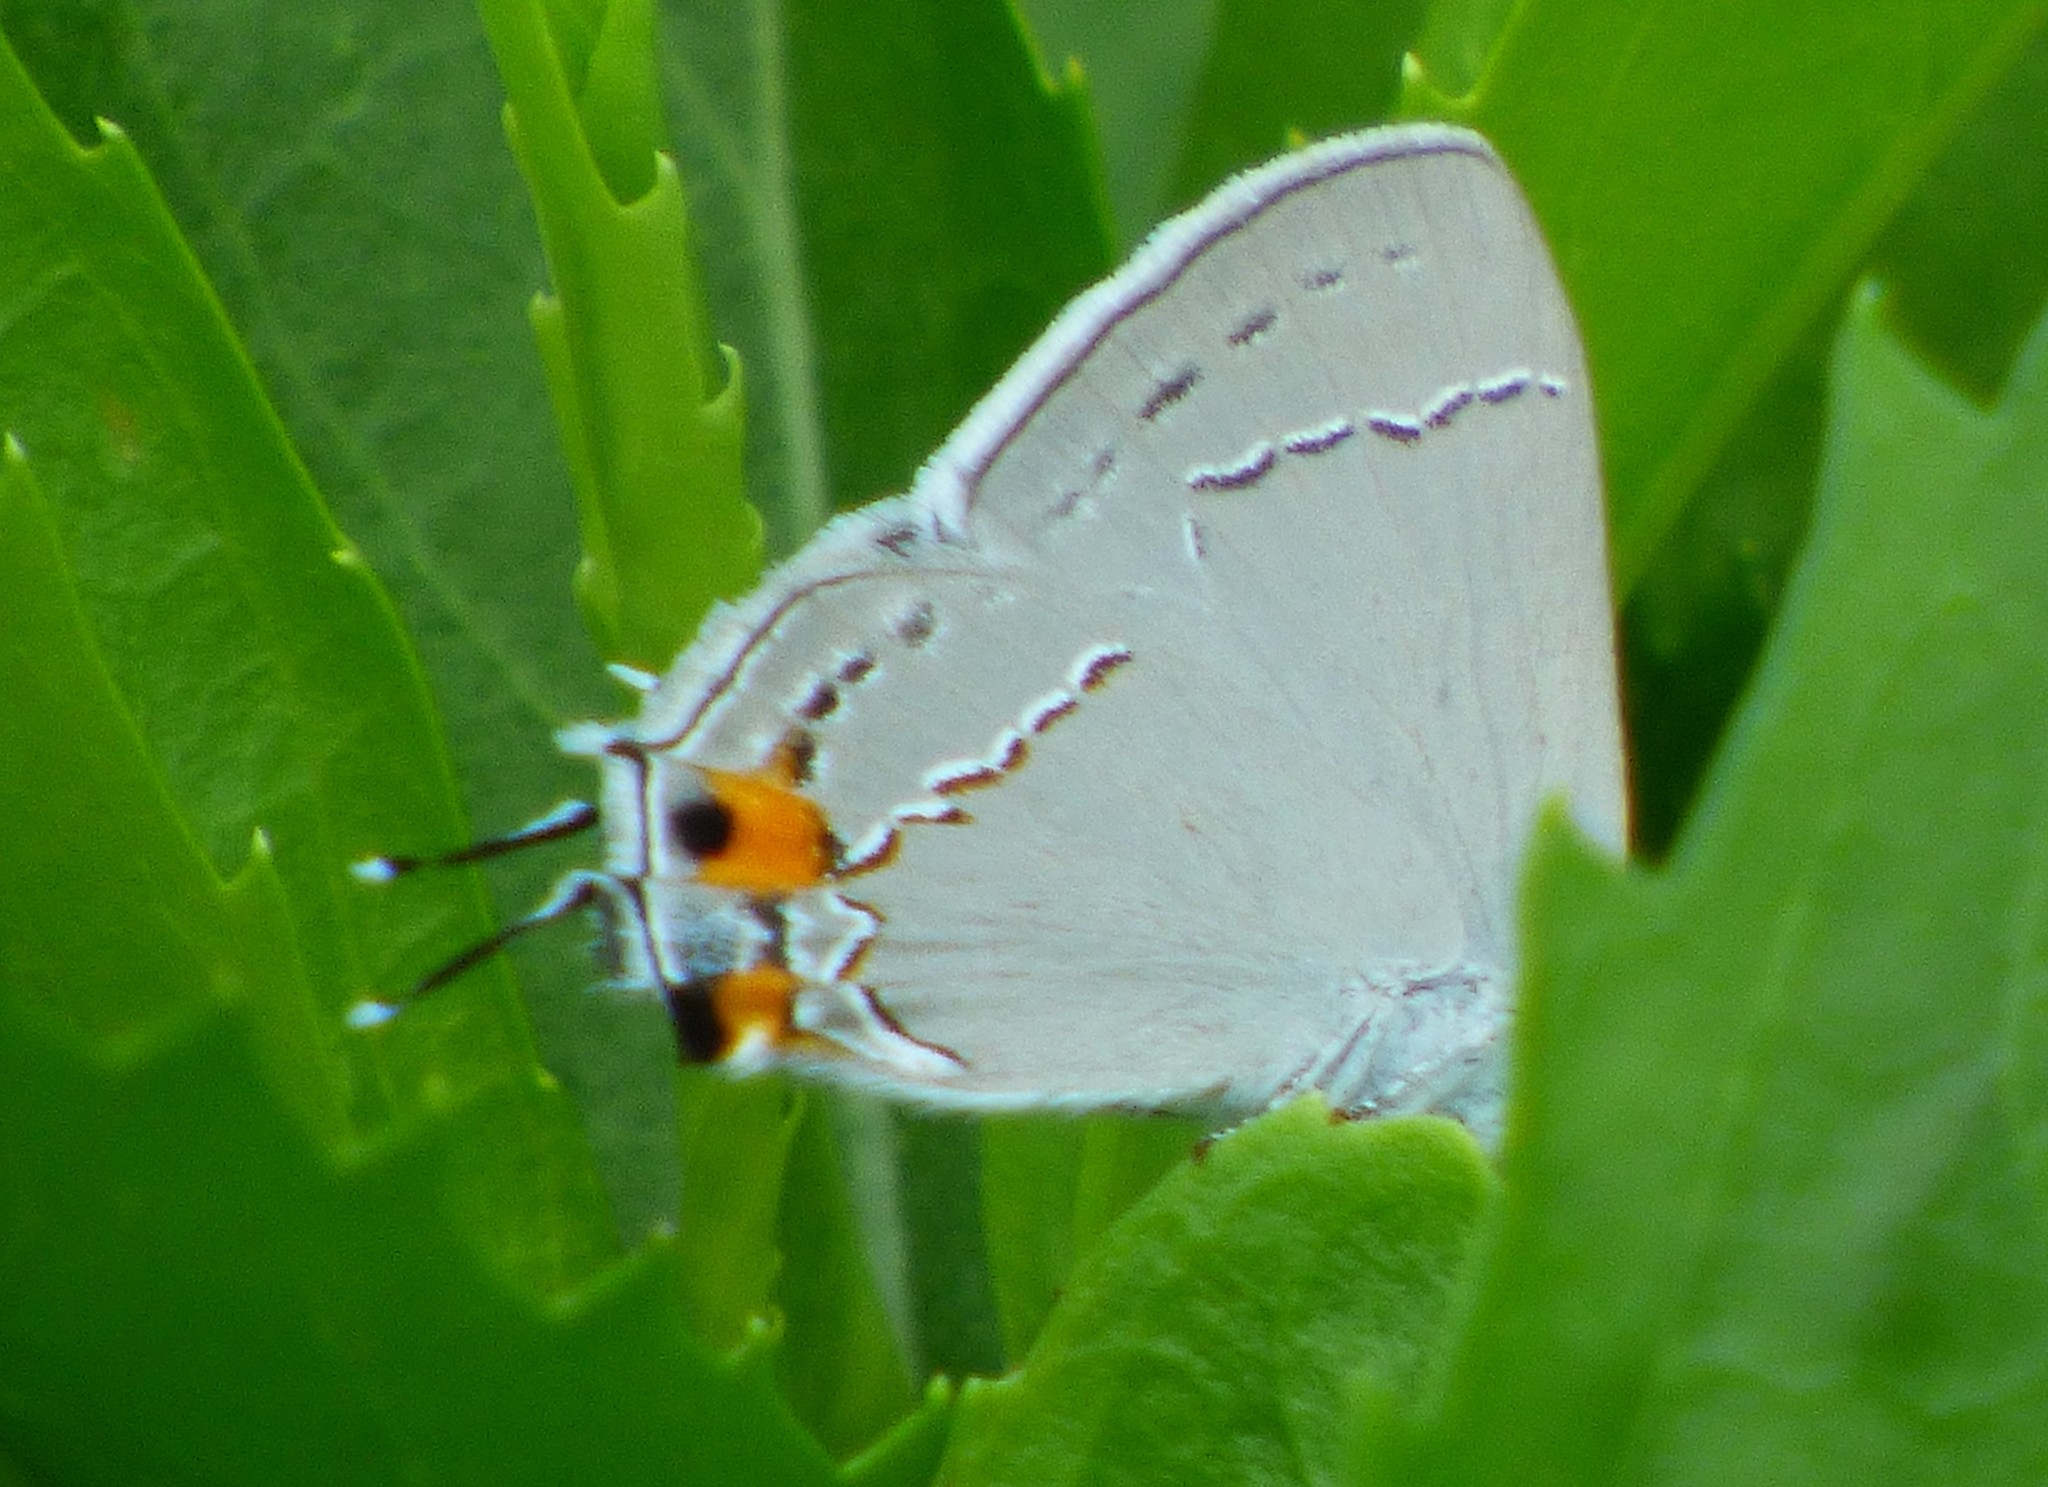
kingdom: Animalia
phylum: Arthropoda
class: Insecta
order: Lepidoptera
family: Lycaenidae
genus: Strymon
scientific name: Strymon melinus
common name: Gray hairstreak
